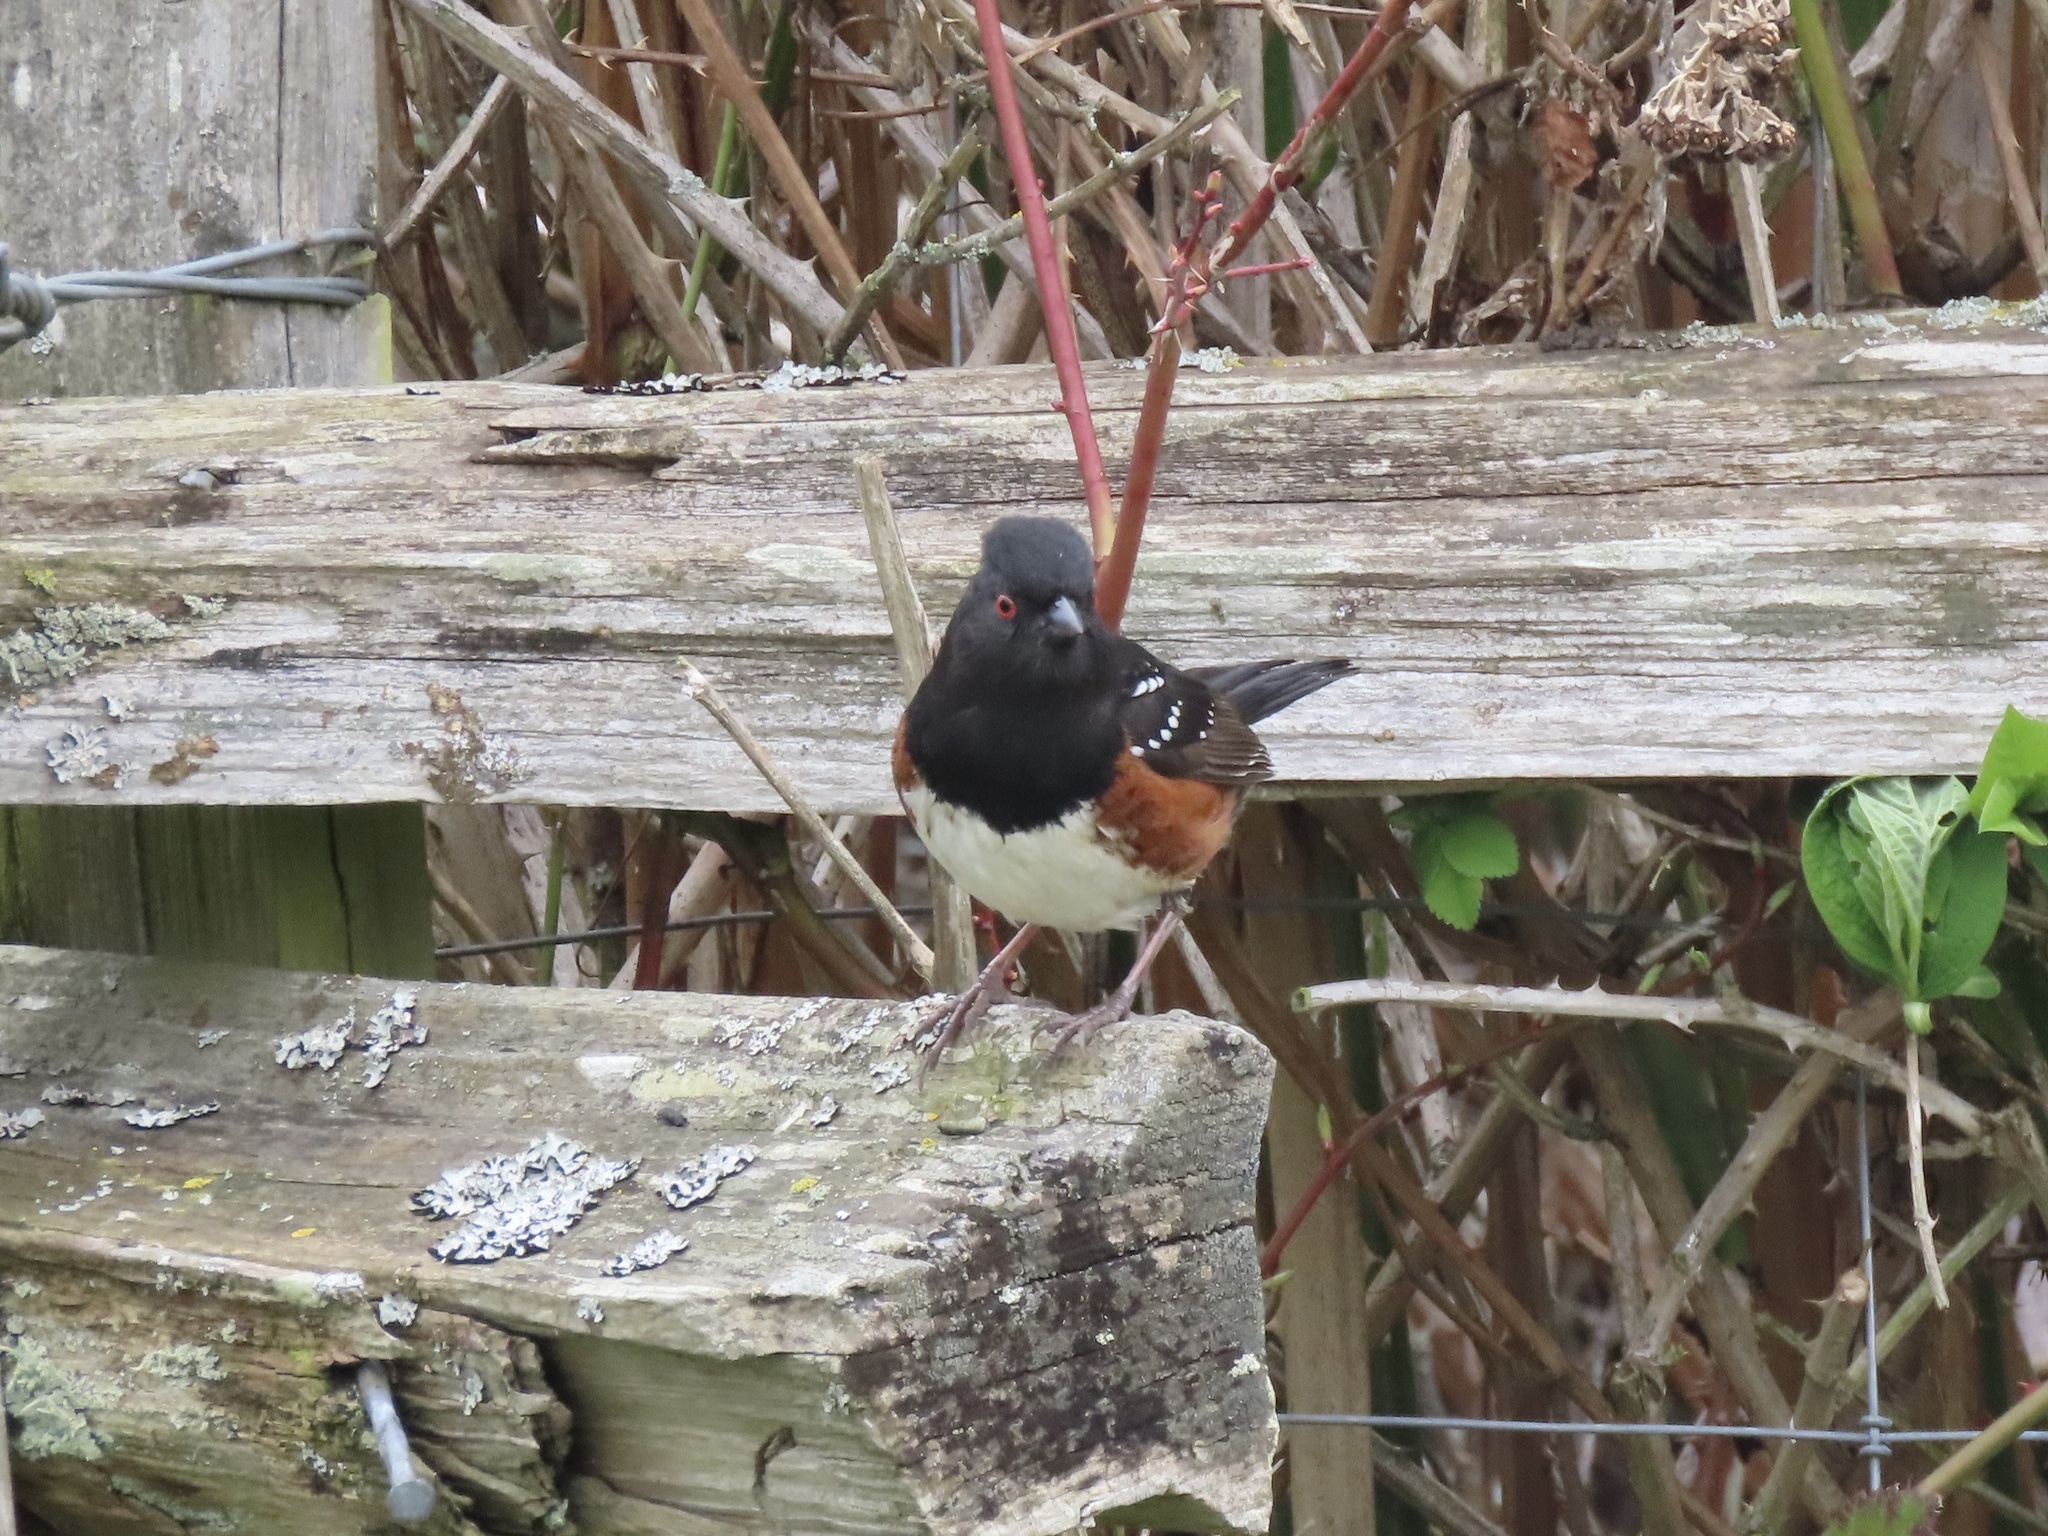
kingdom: Animalia
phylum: Chordata
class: Aves
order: Passeriformes
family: Passerellidae
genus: Pipilo
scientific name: Pipilo maculatus
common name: Spotted towhee
